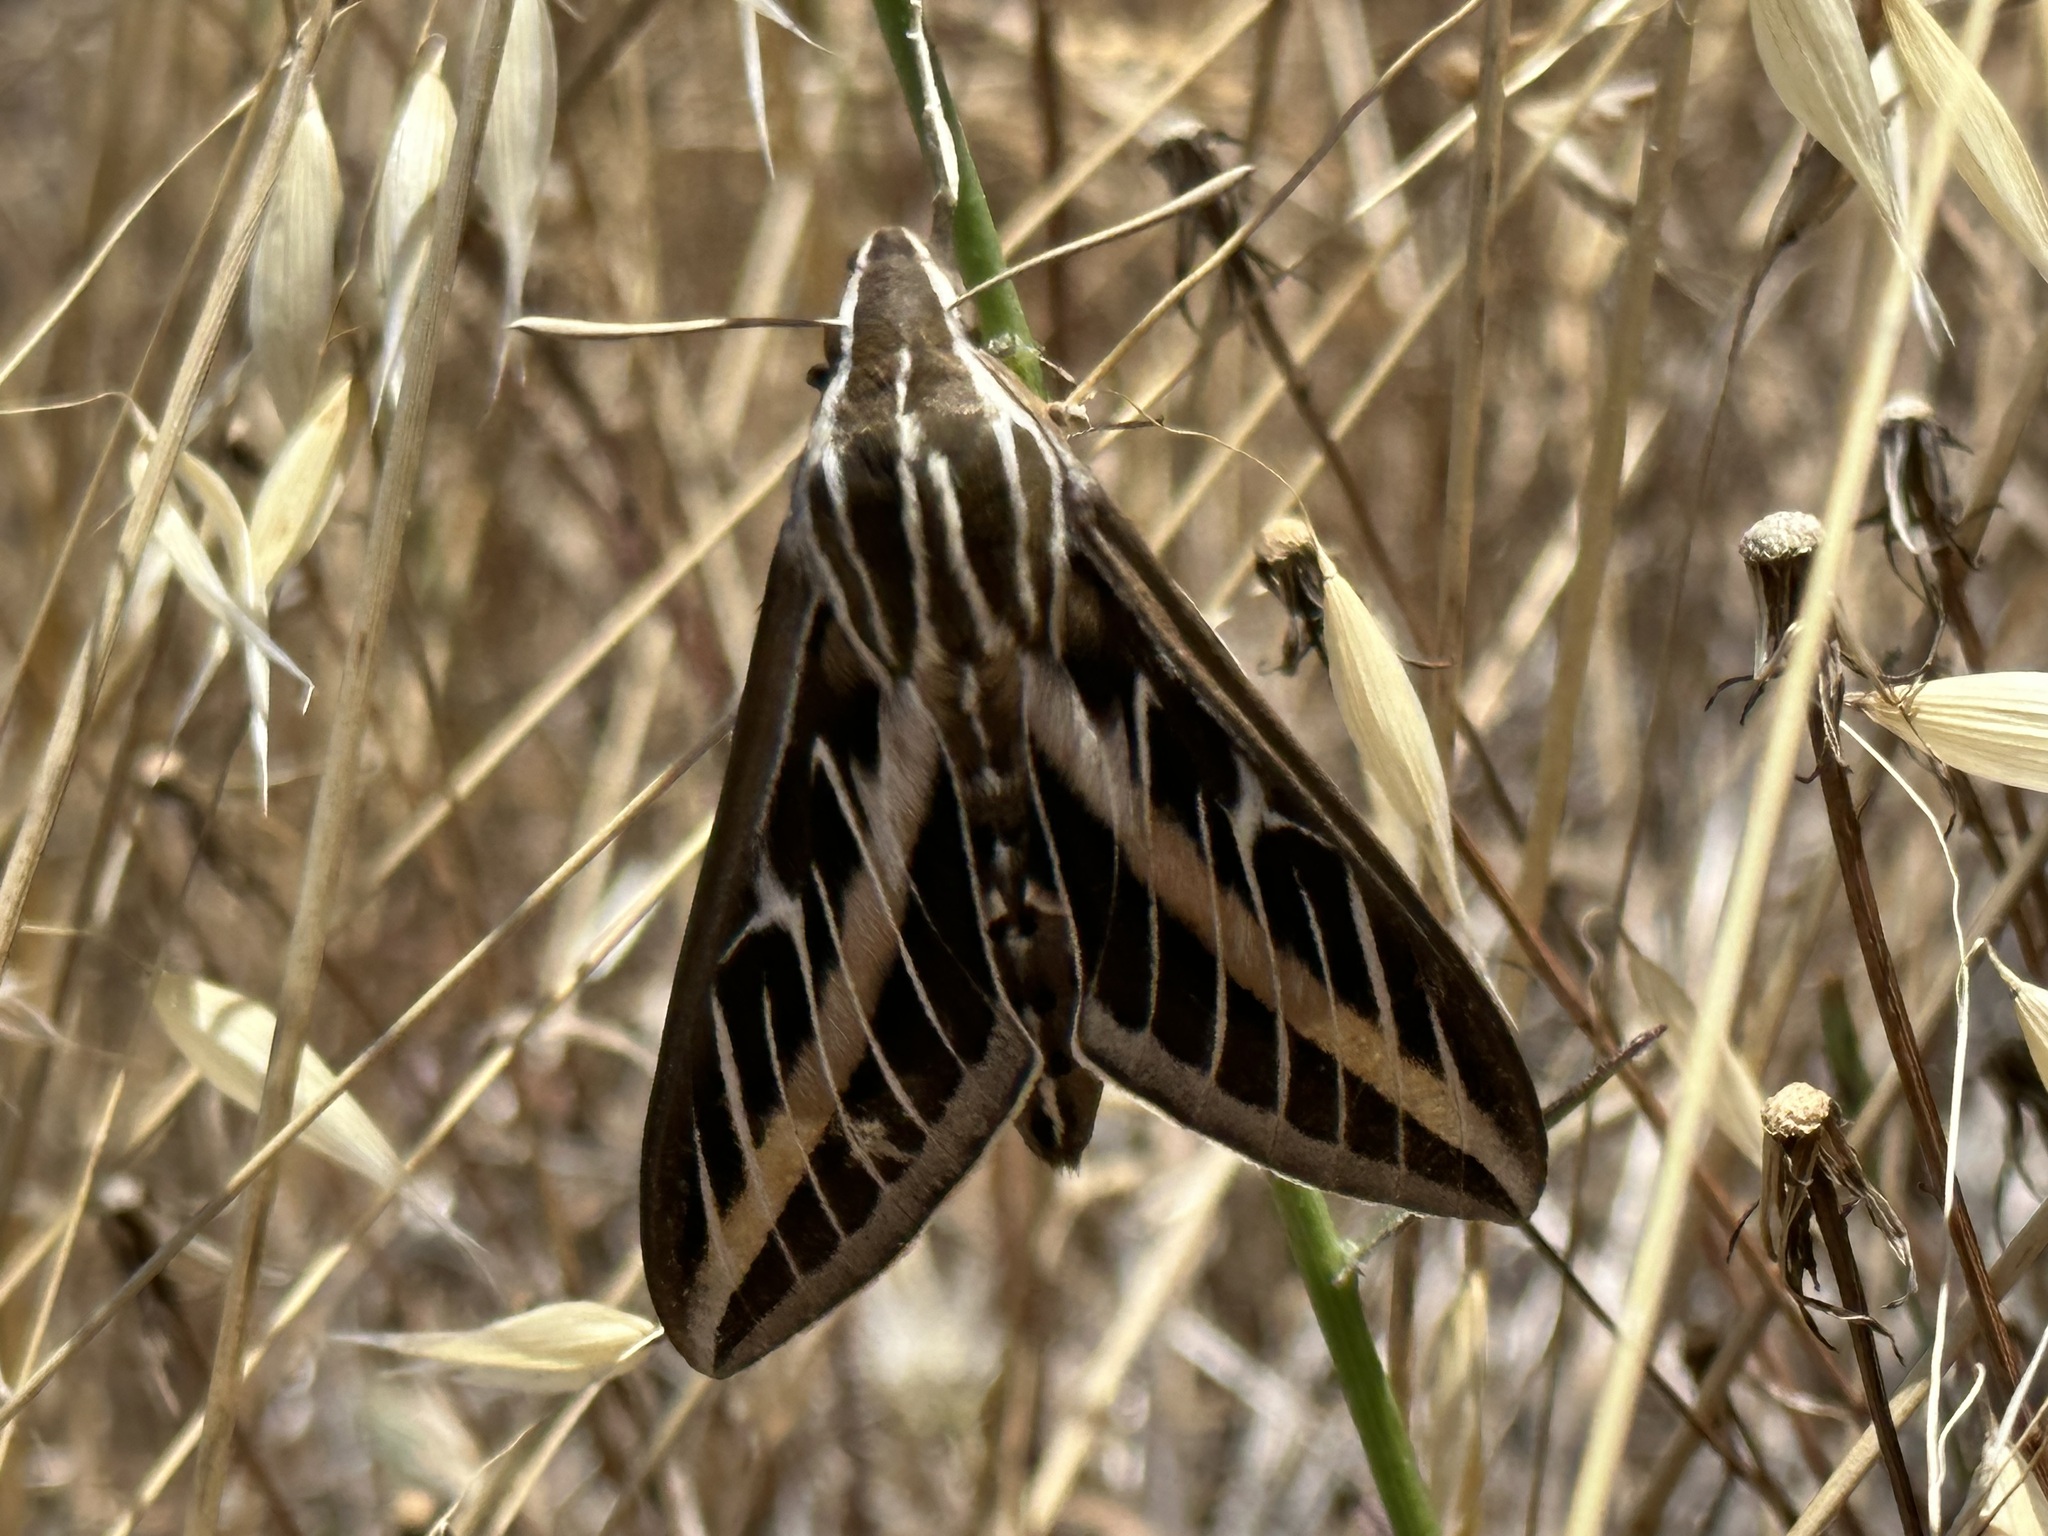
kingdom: Animalia
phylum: Arthropoda
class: Insecta
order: Lepidoptera
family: Sphingidae
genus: Hyles
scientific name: Hyles lineata
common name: White-lined sphinx
